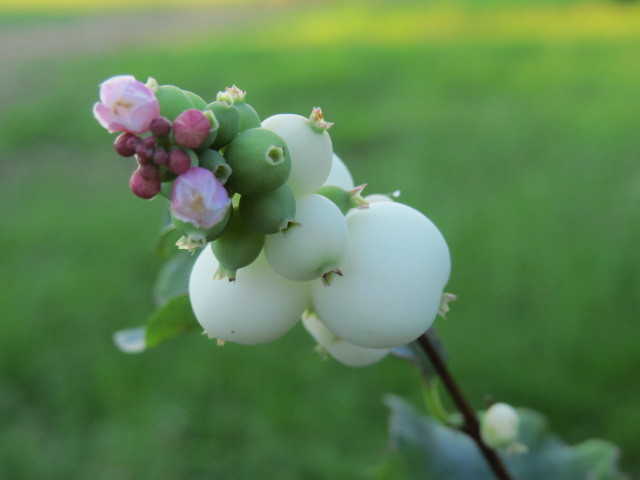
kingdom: Plantae
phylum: Tracheophyta
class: Magnoliopsida
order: Dipsacales
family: Caprifoliaceae
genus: Symphoricarpos
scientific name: Symphoricarpos albus
